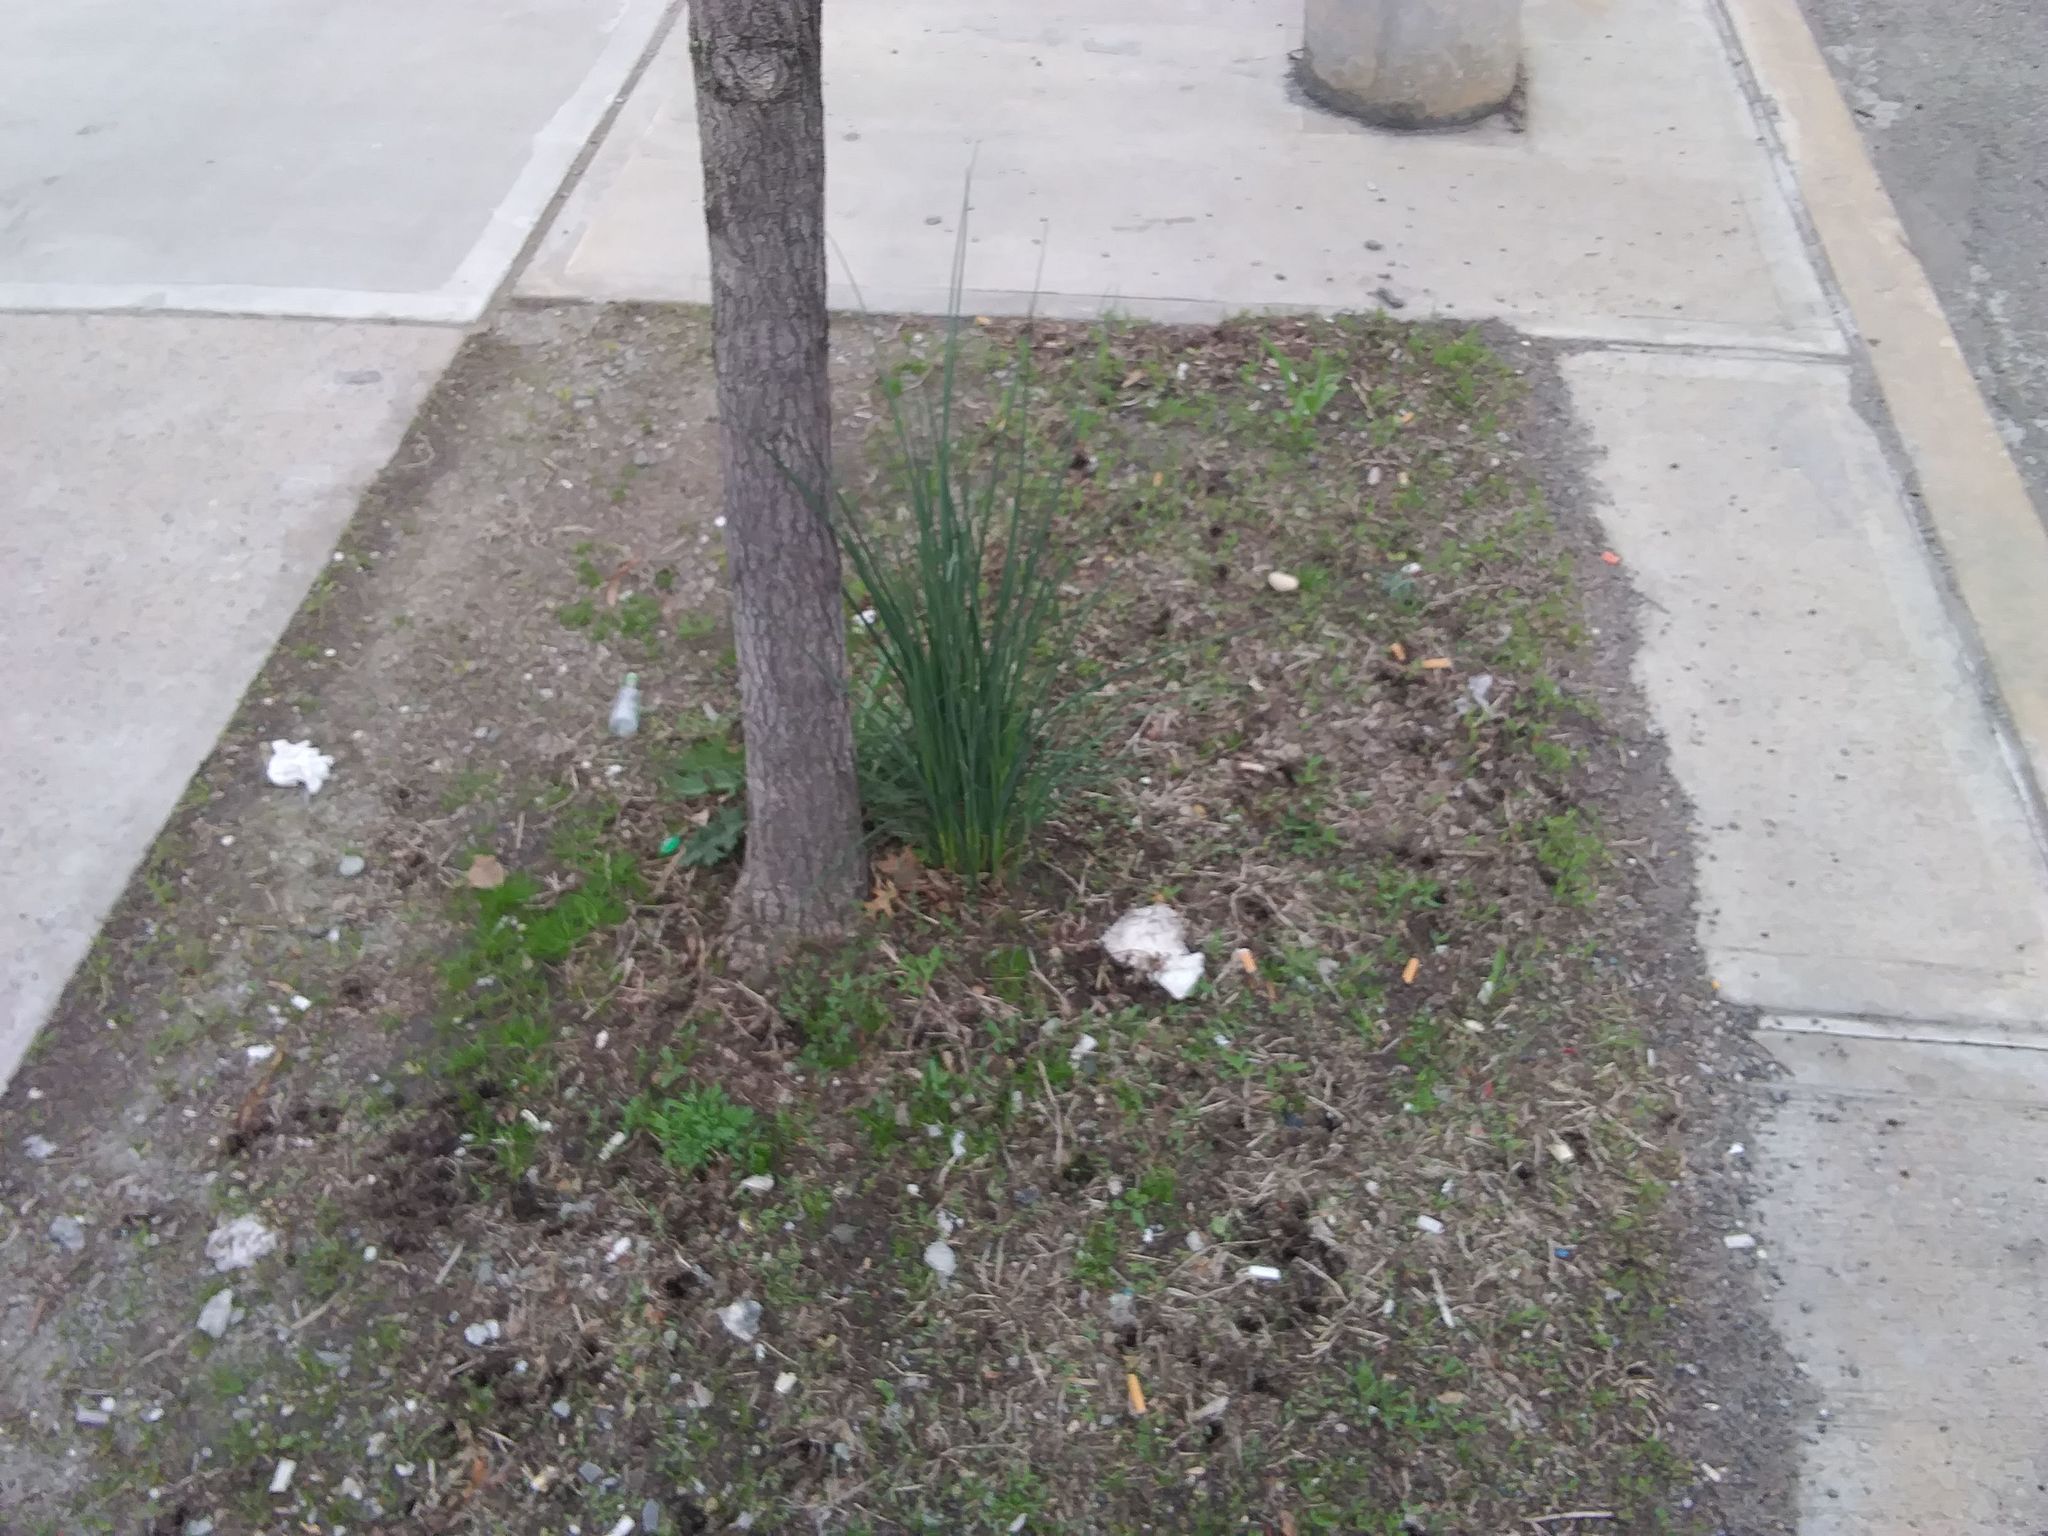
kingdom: Plantae
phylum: Tracheophyta
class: Liliopsida
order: Asparagales
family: Amaryllidaceae
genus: Allium
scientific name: Allium vineale
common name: Crow garlic
